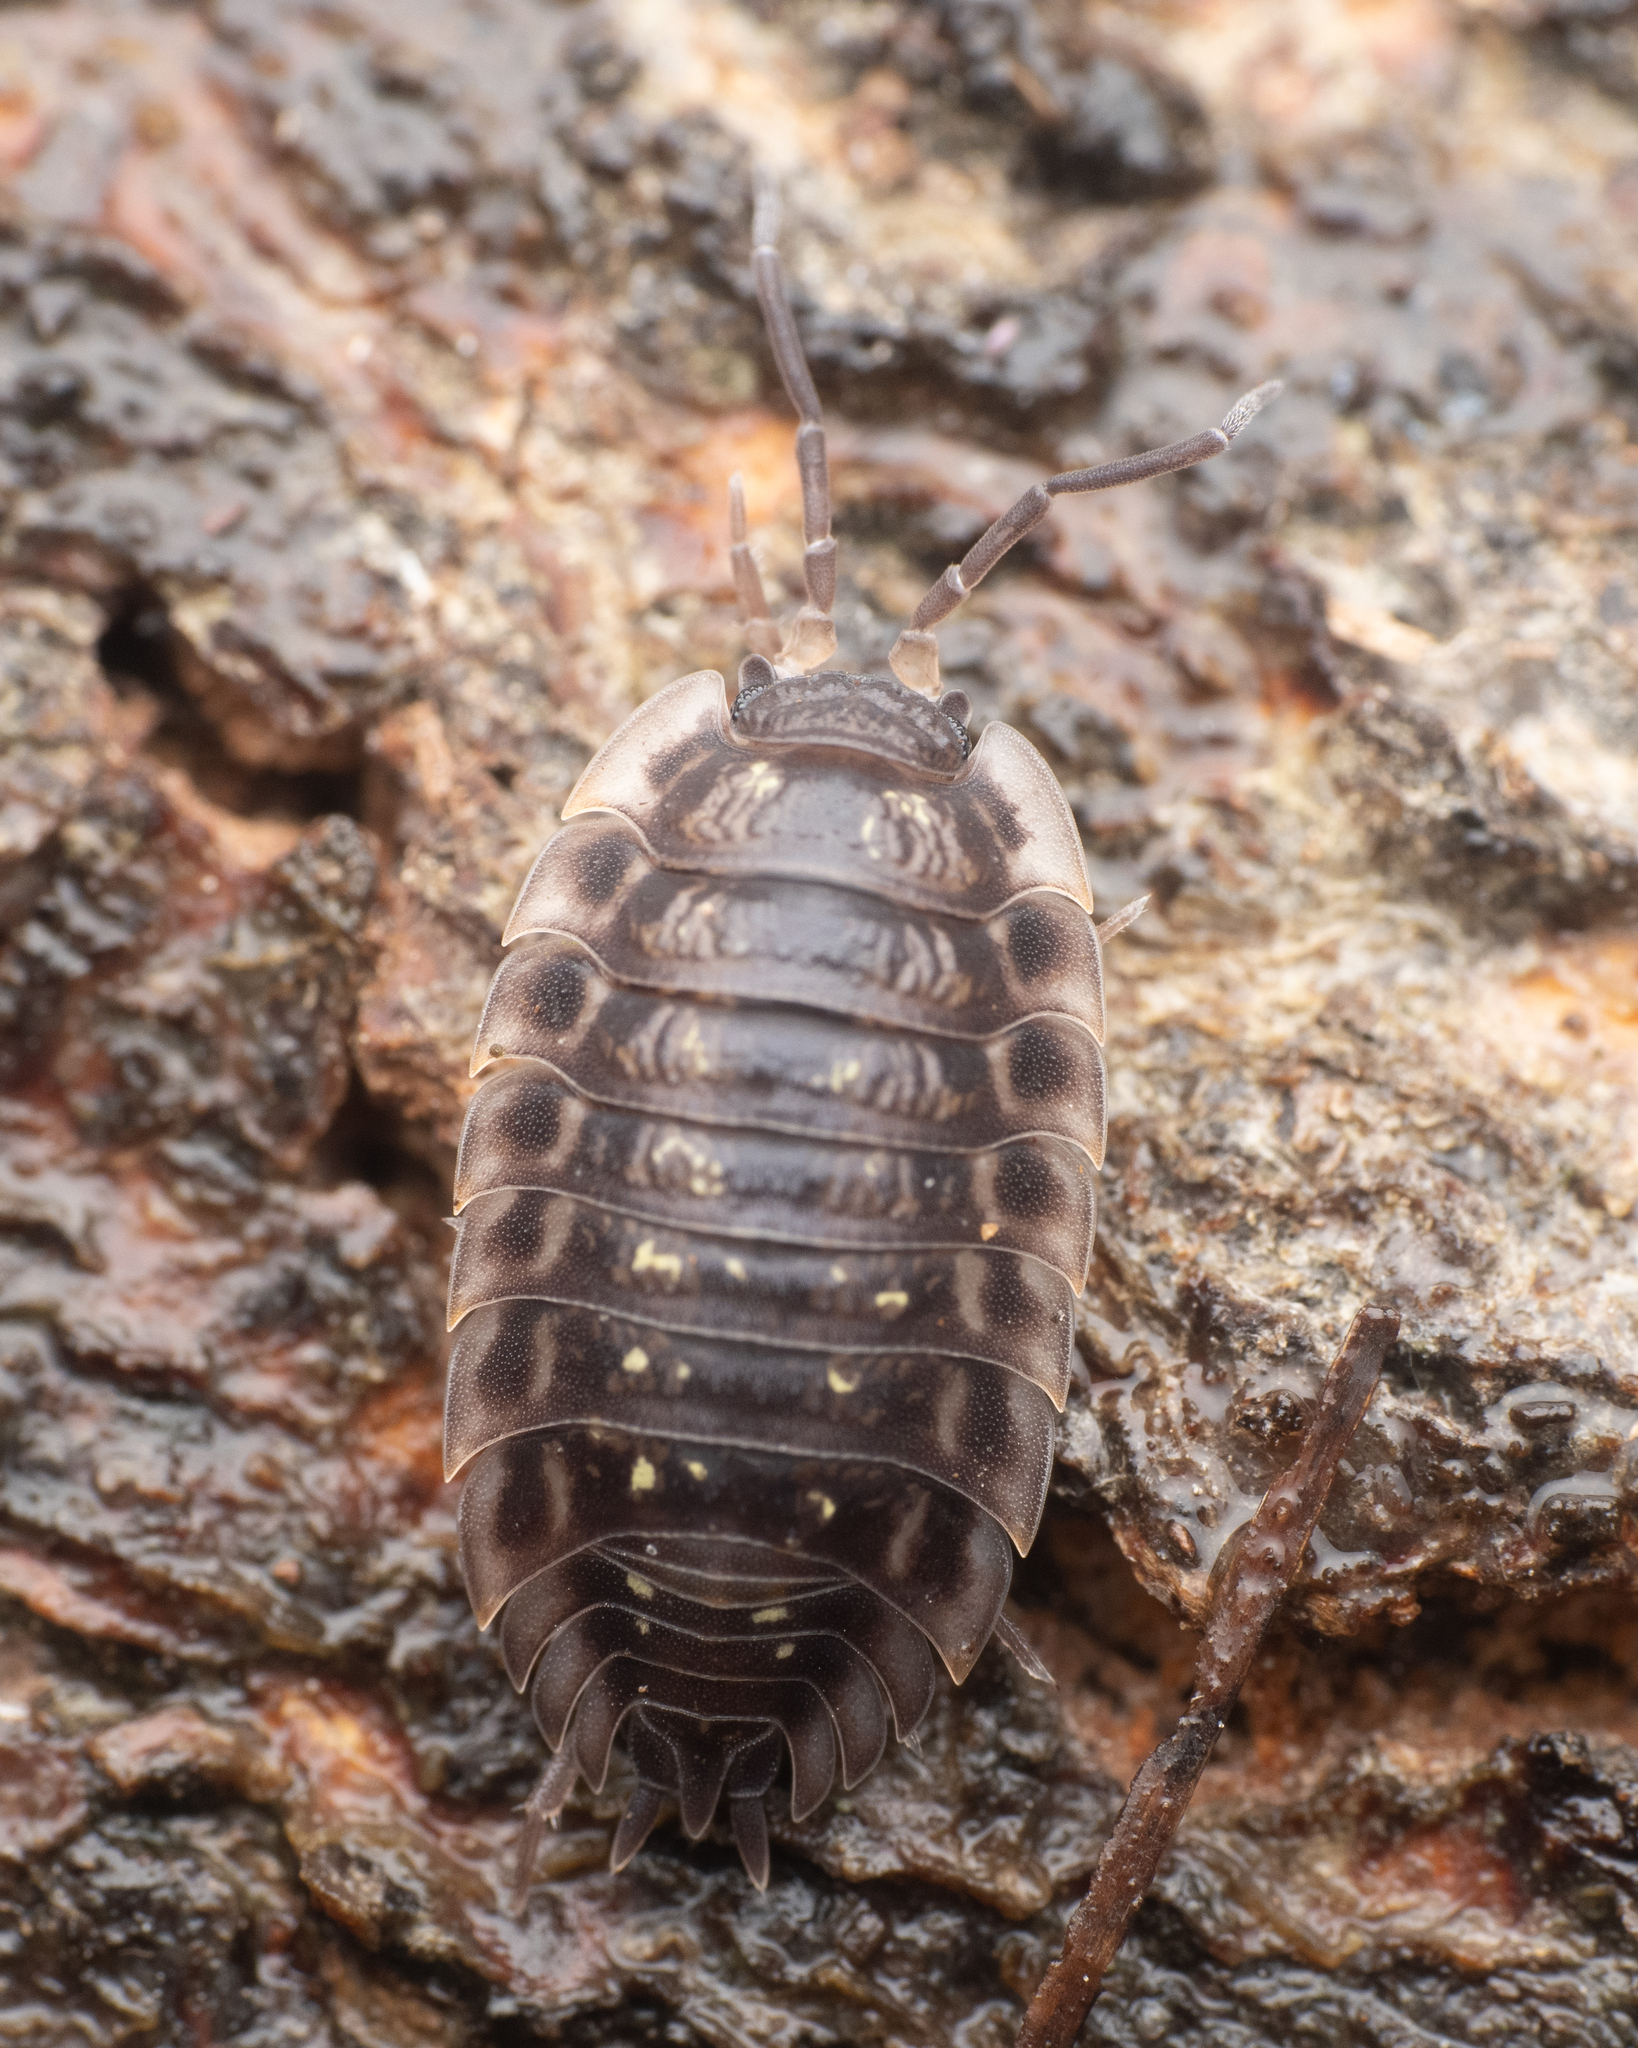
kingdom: Animalia
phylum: Arthropoda
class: Malacostraca
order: Isopoda
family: Oniscidae
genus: Oniscus
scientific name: Oniscus asellus
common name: Common shiny woodlouse
